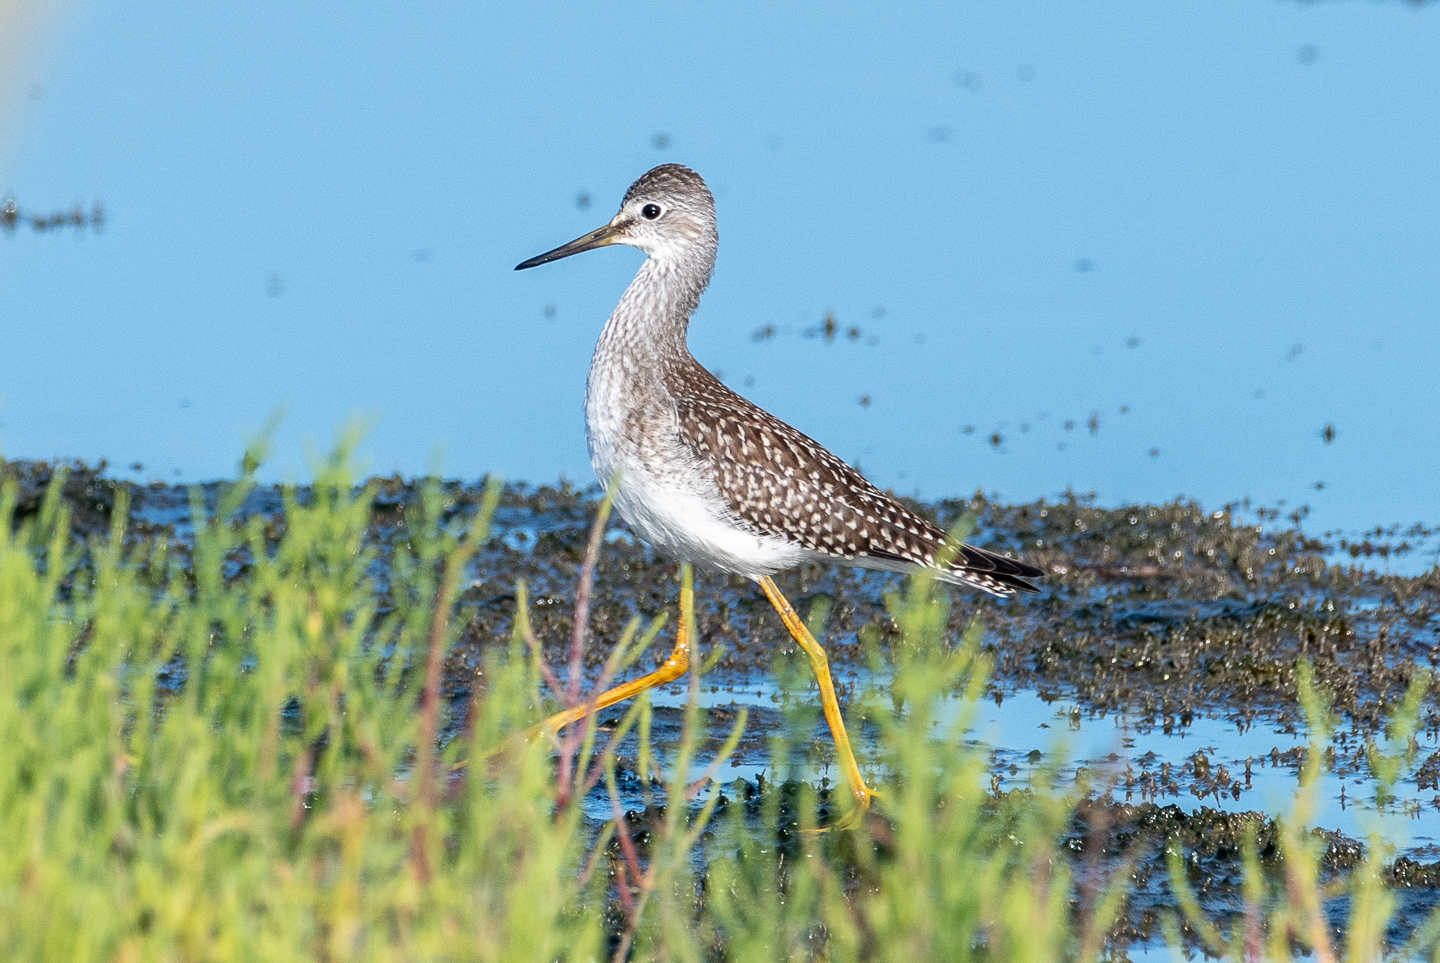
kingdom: Animalia
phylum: Chordata
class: Aves
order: Charadriiformes
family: Scolopacidae
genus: Tringa
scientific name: Tringa flavipes
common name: Lesser yellowlegs
